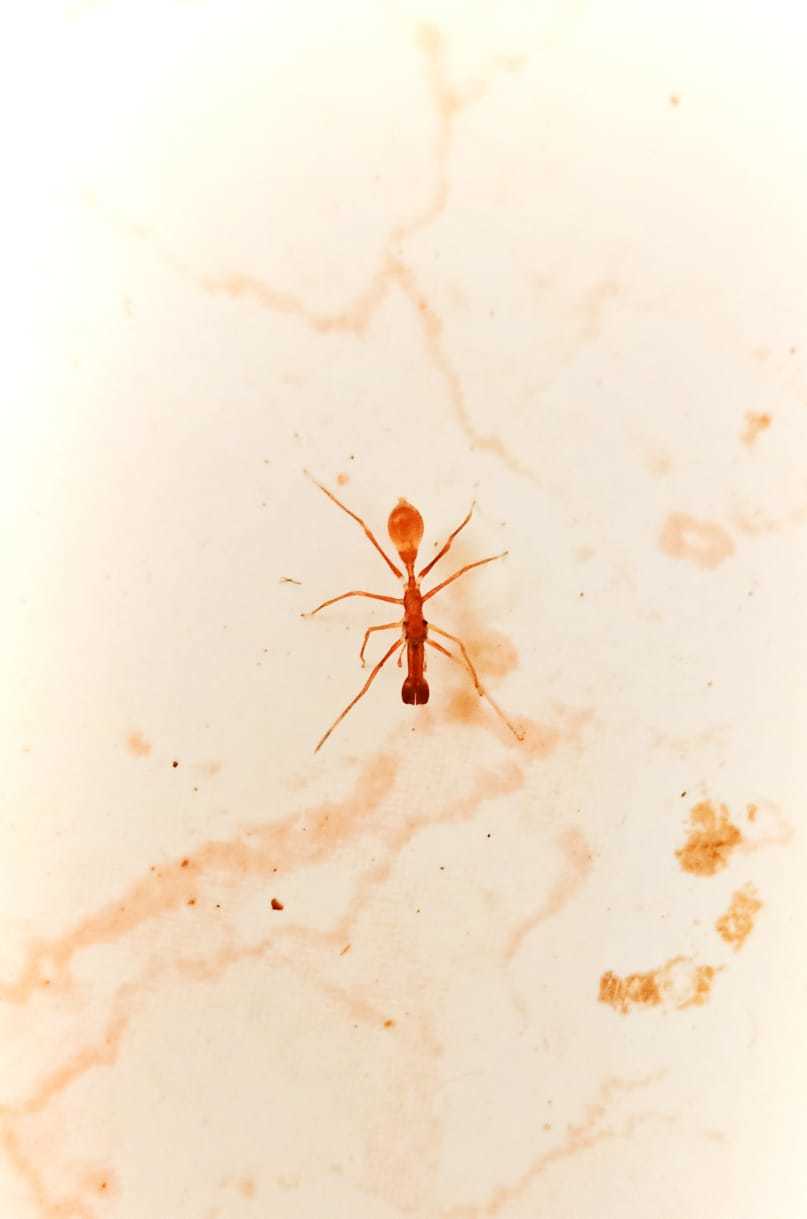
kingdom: Animalia
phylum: Arthropoda
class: Arachnida
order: Araneae
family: Salticidae
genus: Myrmaplata
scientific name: Myrmaplata plataleoides
